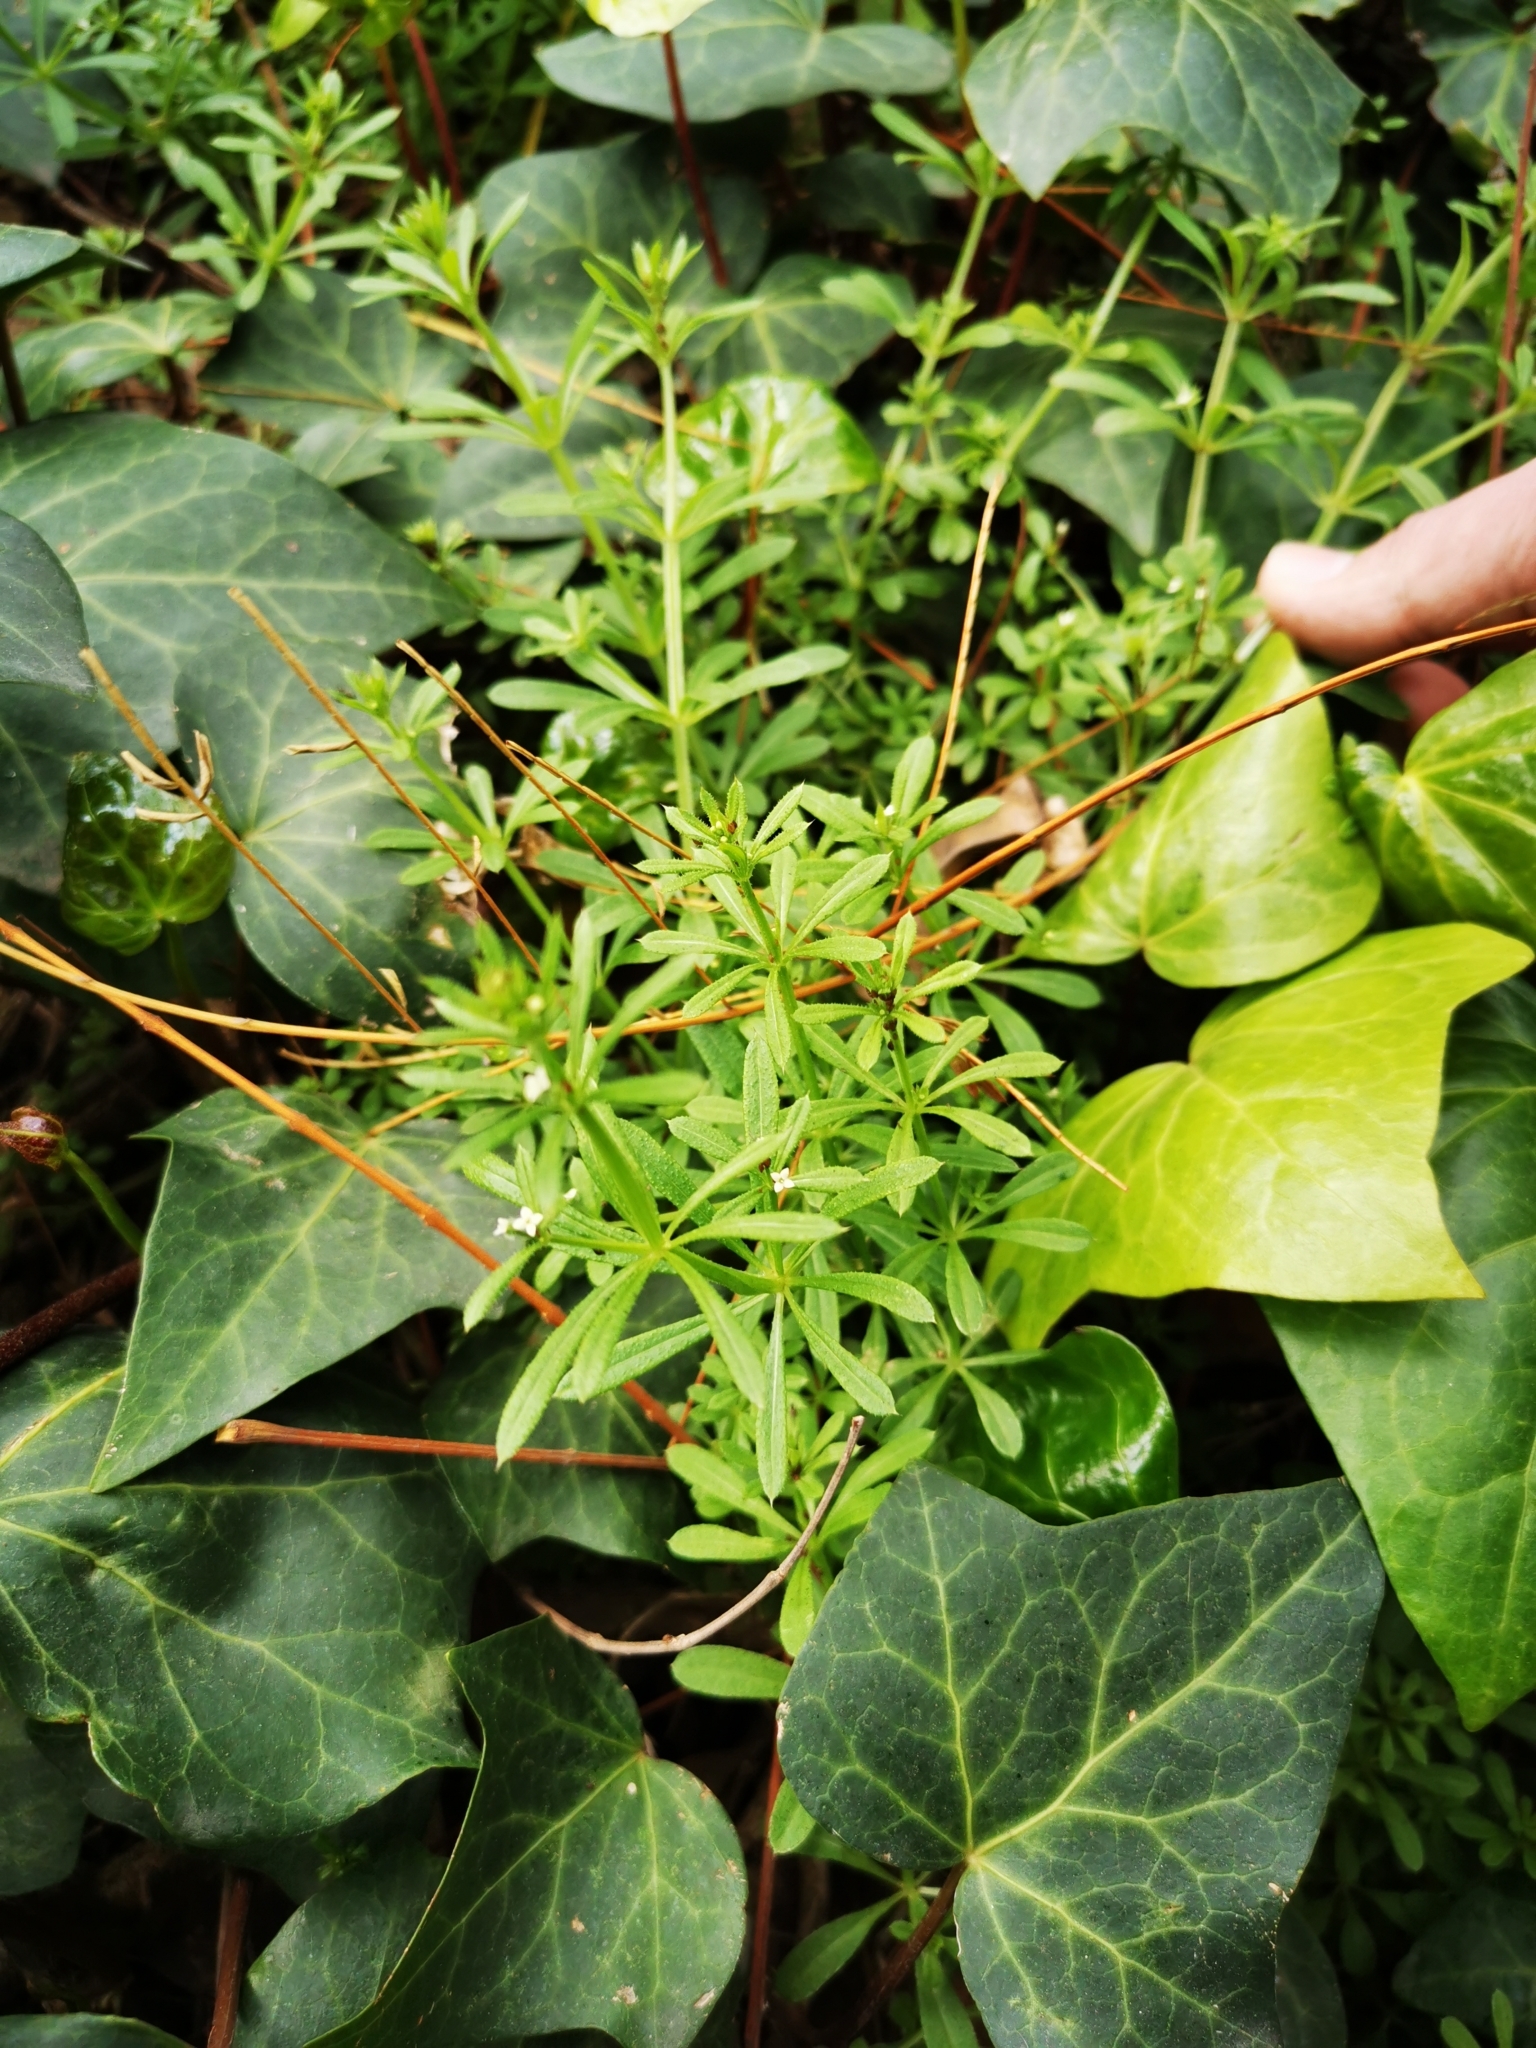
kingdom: Plantae
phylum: Tracheophyta
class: Magnoliopsida
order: Gentianales
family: Rubiaceae
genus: Galium
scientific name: Galium aparine
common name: Cleavers
